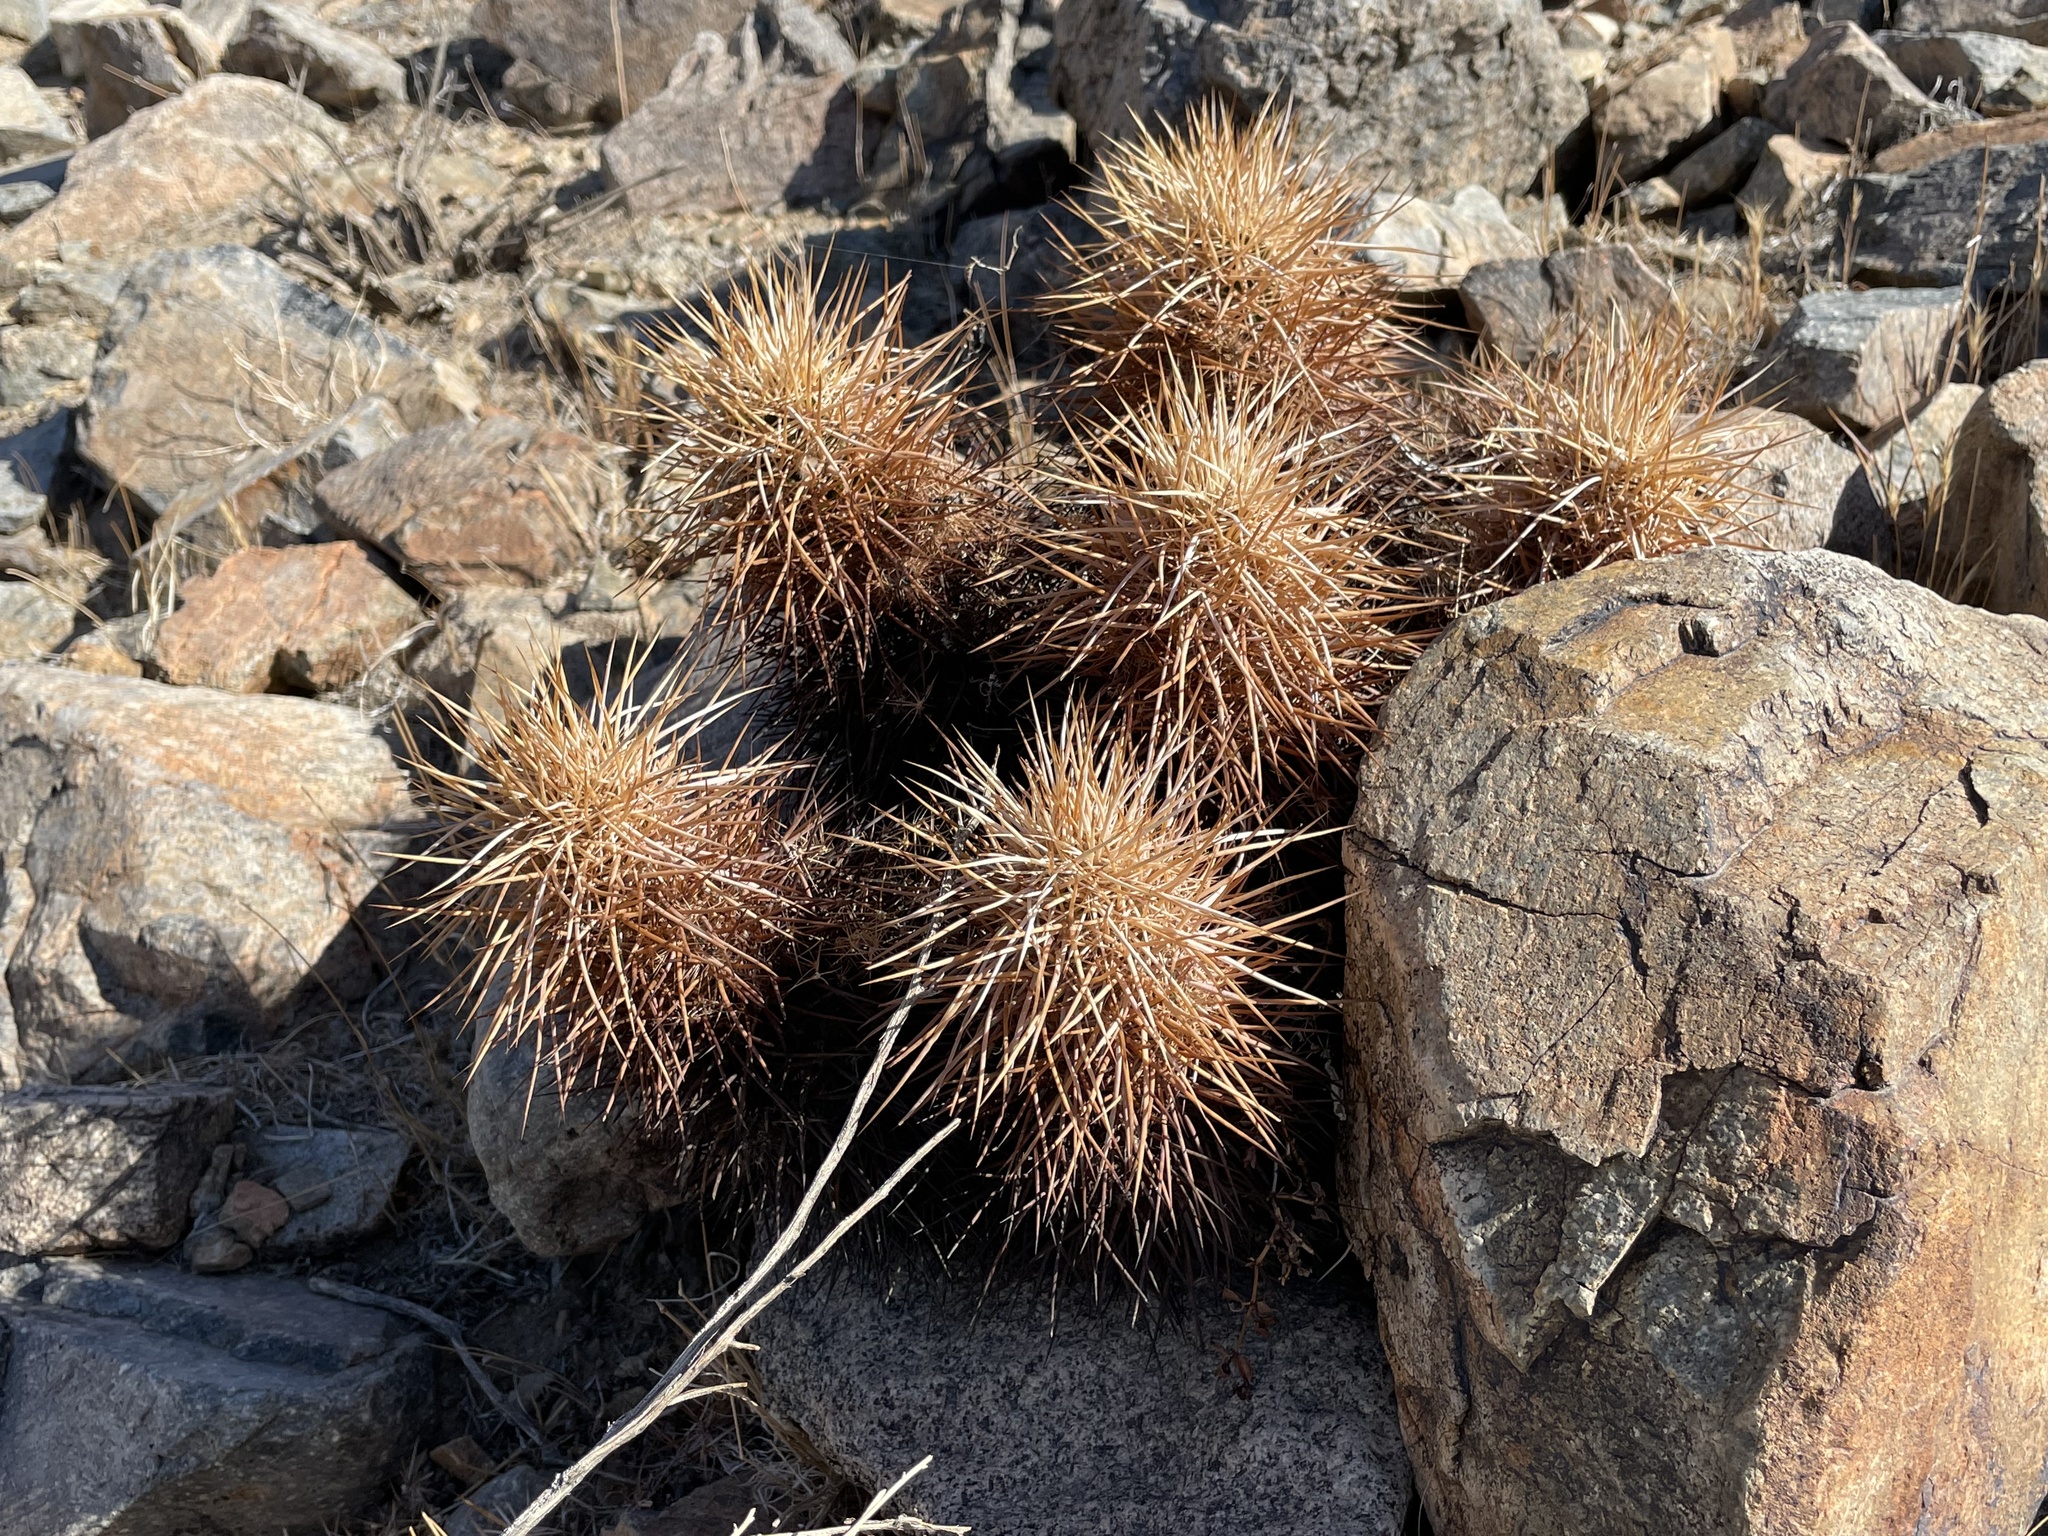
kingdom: Plantae
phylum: Tracheophyta
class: Magnoliopsida
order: Caryophyllales
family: Cactaceae
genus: Echinocereus
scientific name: Echinocereus engelmannii
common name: Engelmann's hedgehog cactus
